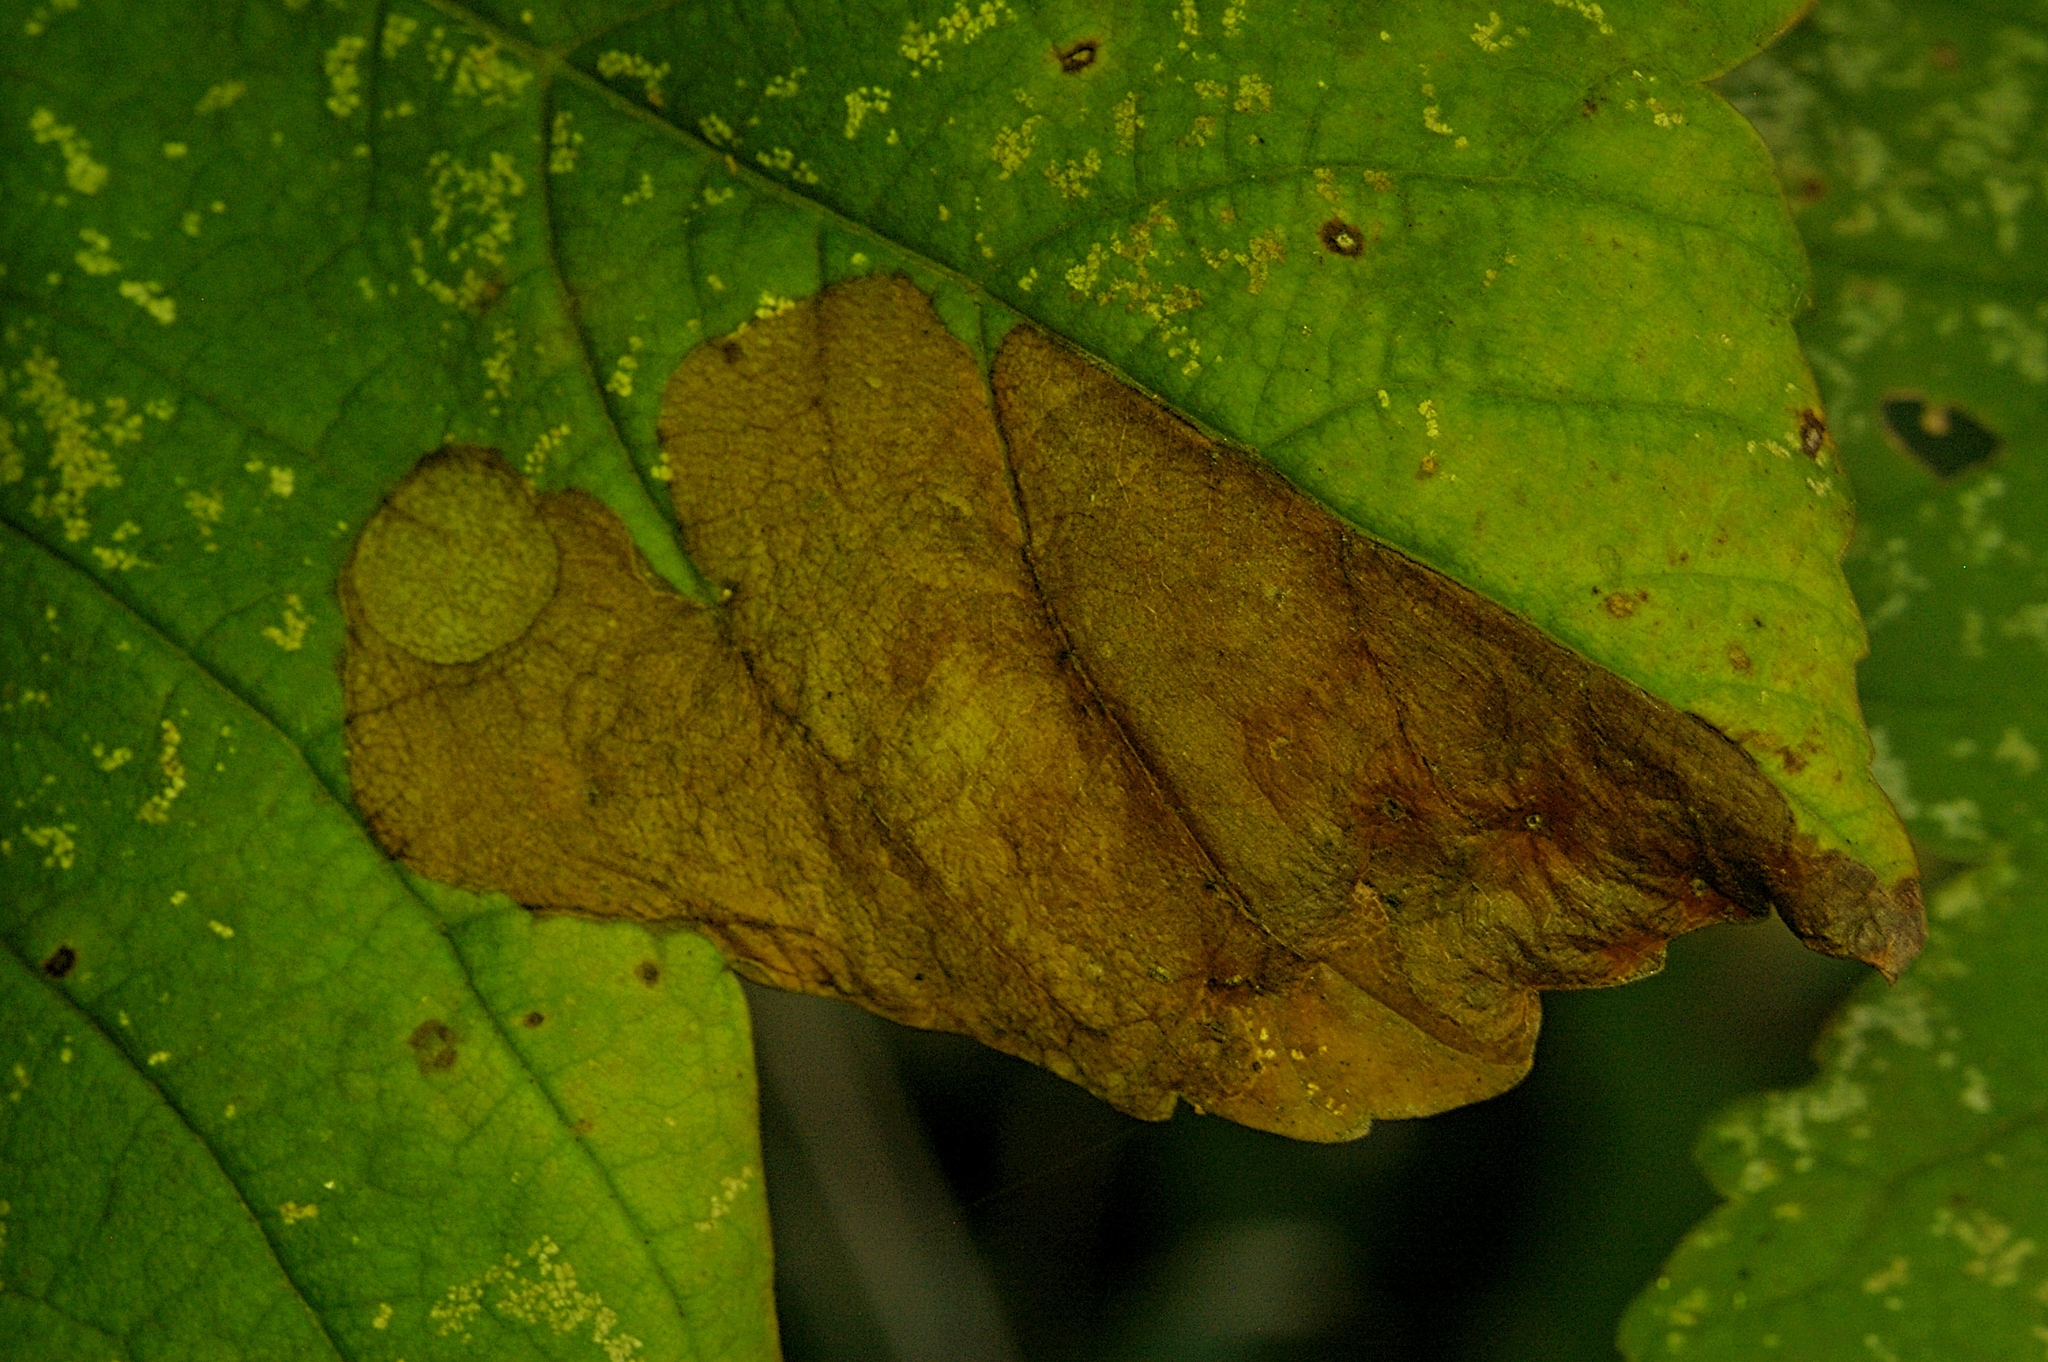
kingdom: Animalia
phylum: Arthropoda
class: Insecta
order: Hymenoptera
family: Tenthredinidae
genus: Heterarthrus
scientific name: Heterarthrus fiora
